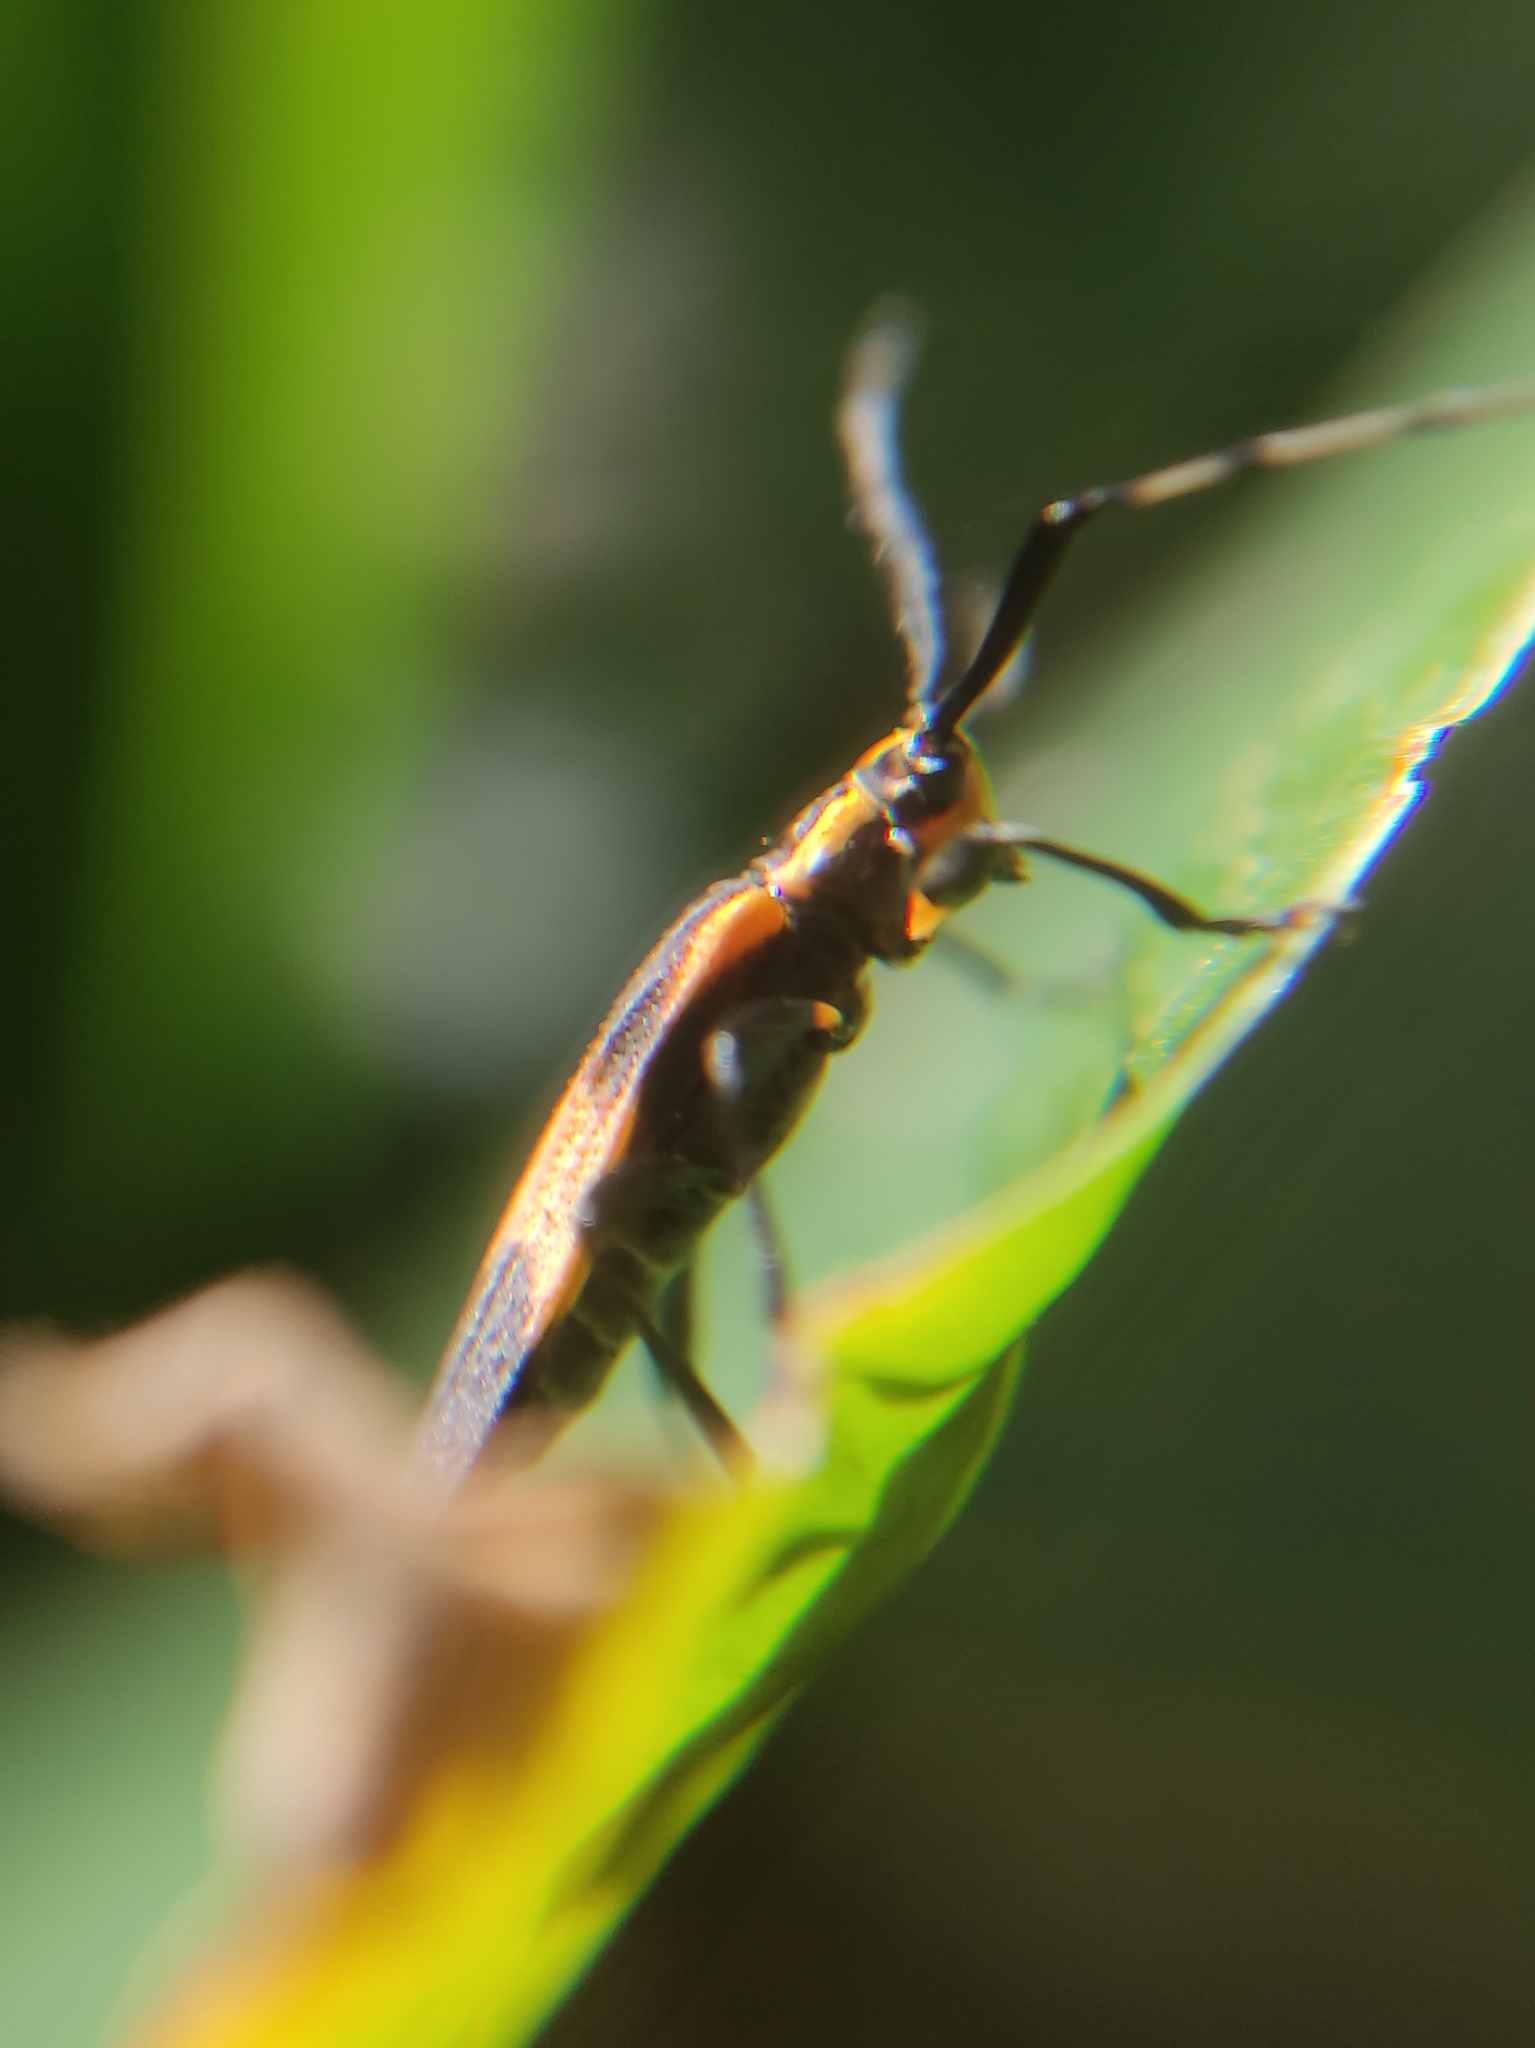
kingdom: Animalia
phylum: Arthropoda
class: Insecta
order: Coleoptera
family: Cerambycidae
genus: Batesparna
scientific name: Batesparna
